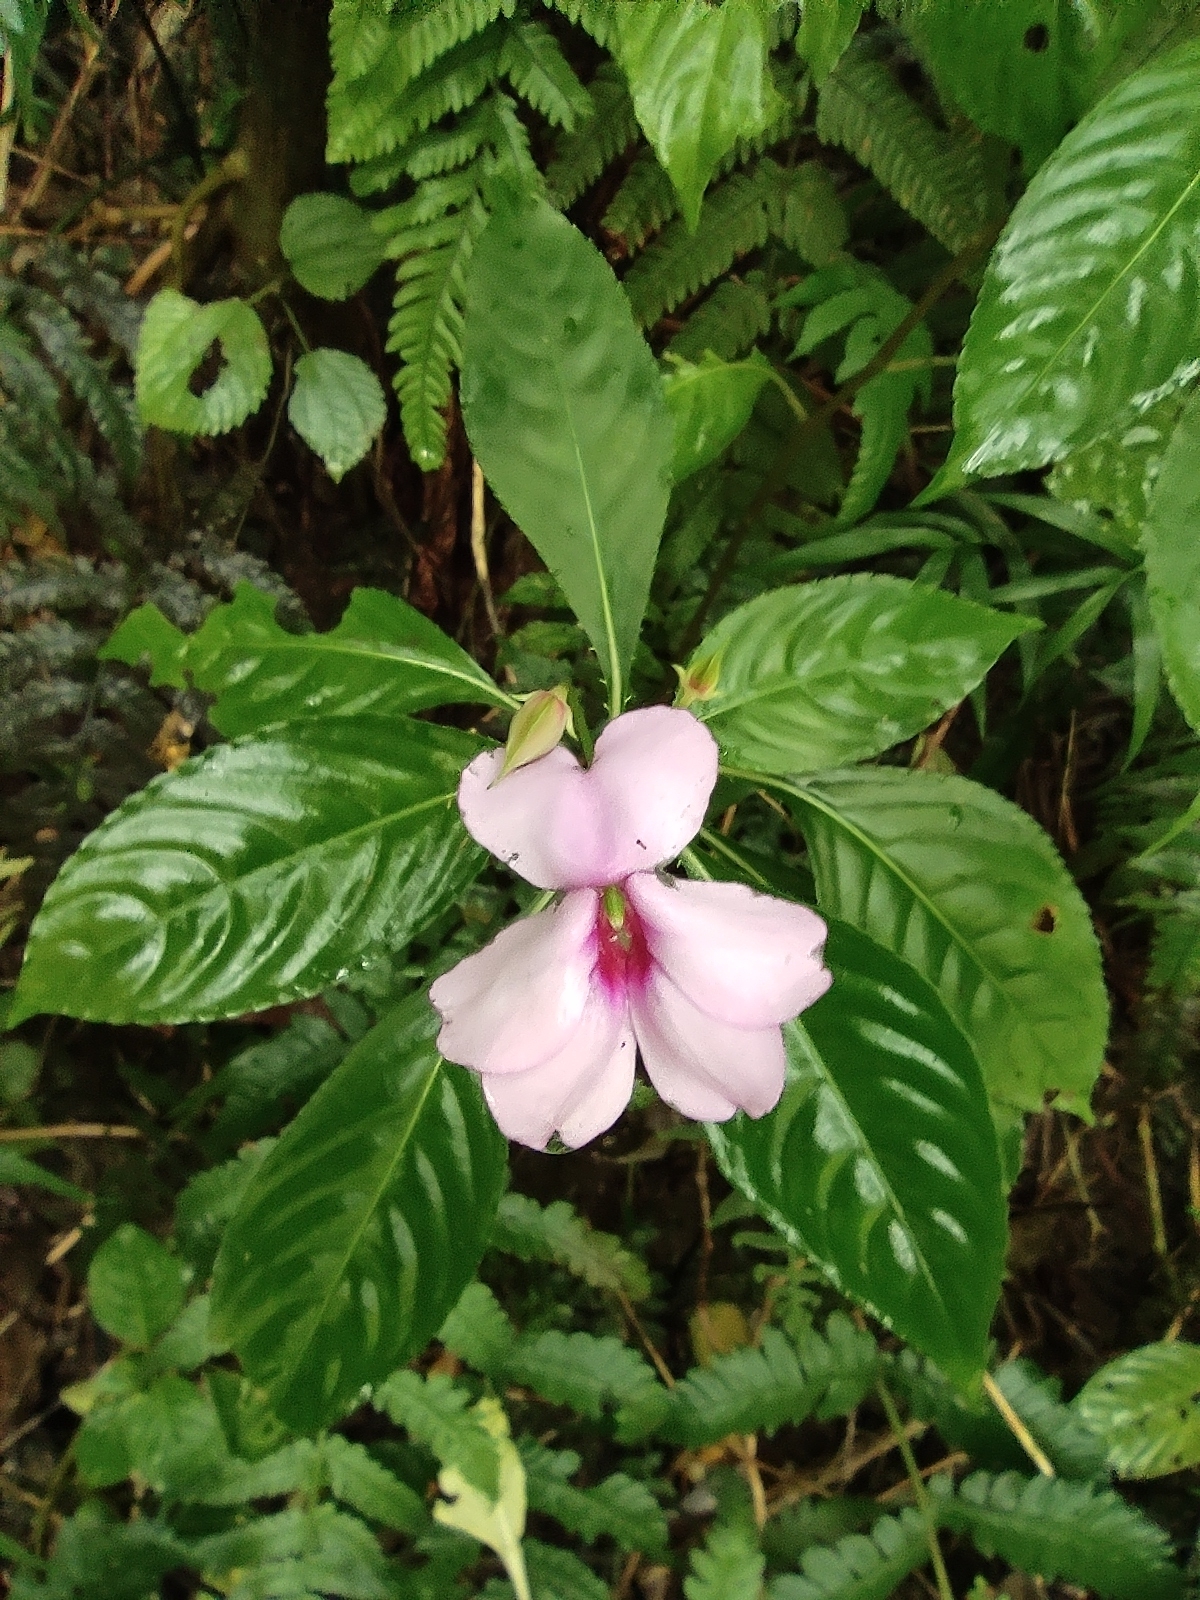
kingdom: Plantae
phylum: Tracheophyta
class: Magnoliopsida
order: Ericales
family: Balsaminaceae
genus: Impatiens
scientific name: Impatiens flaccida
